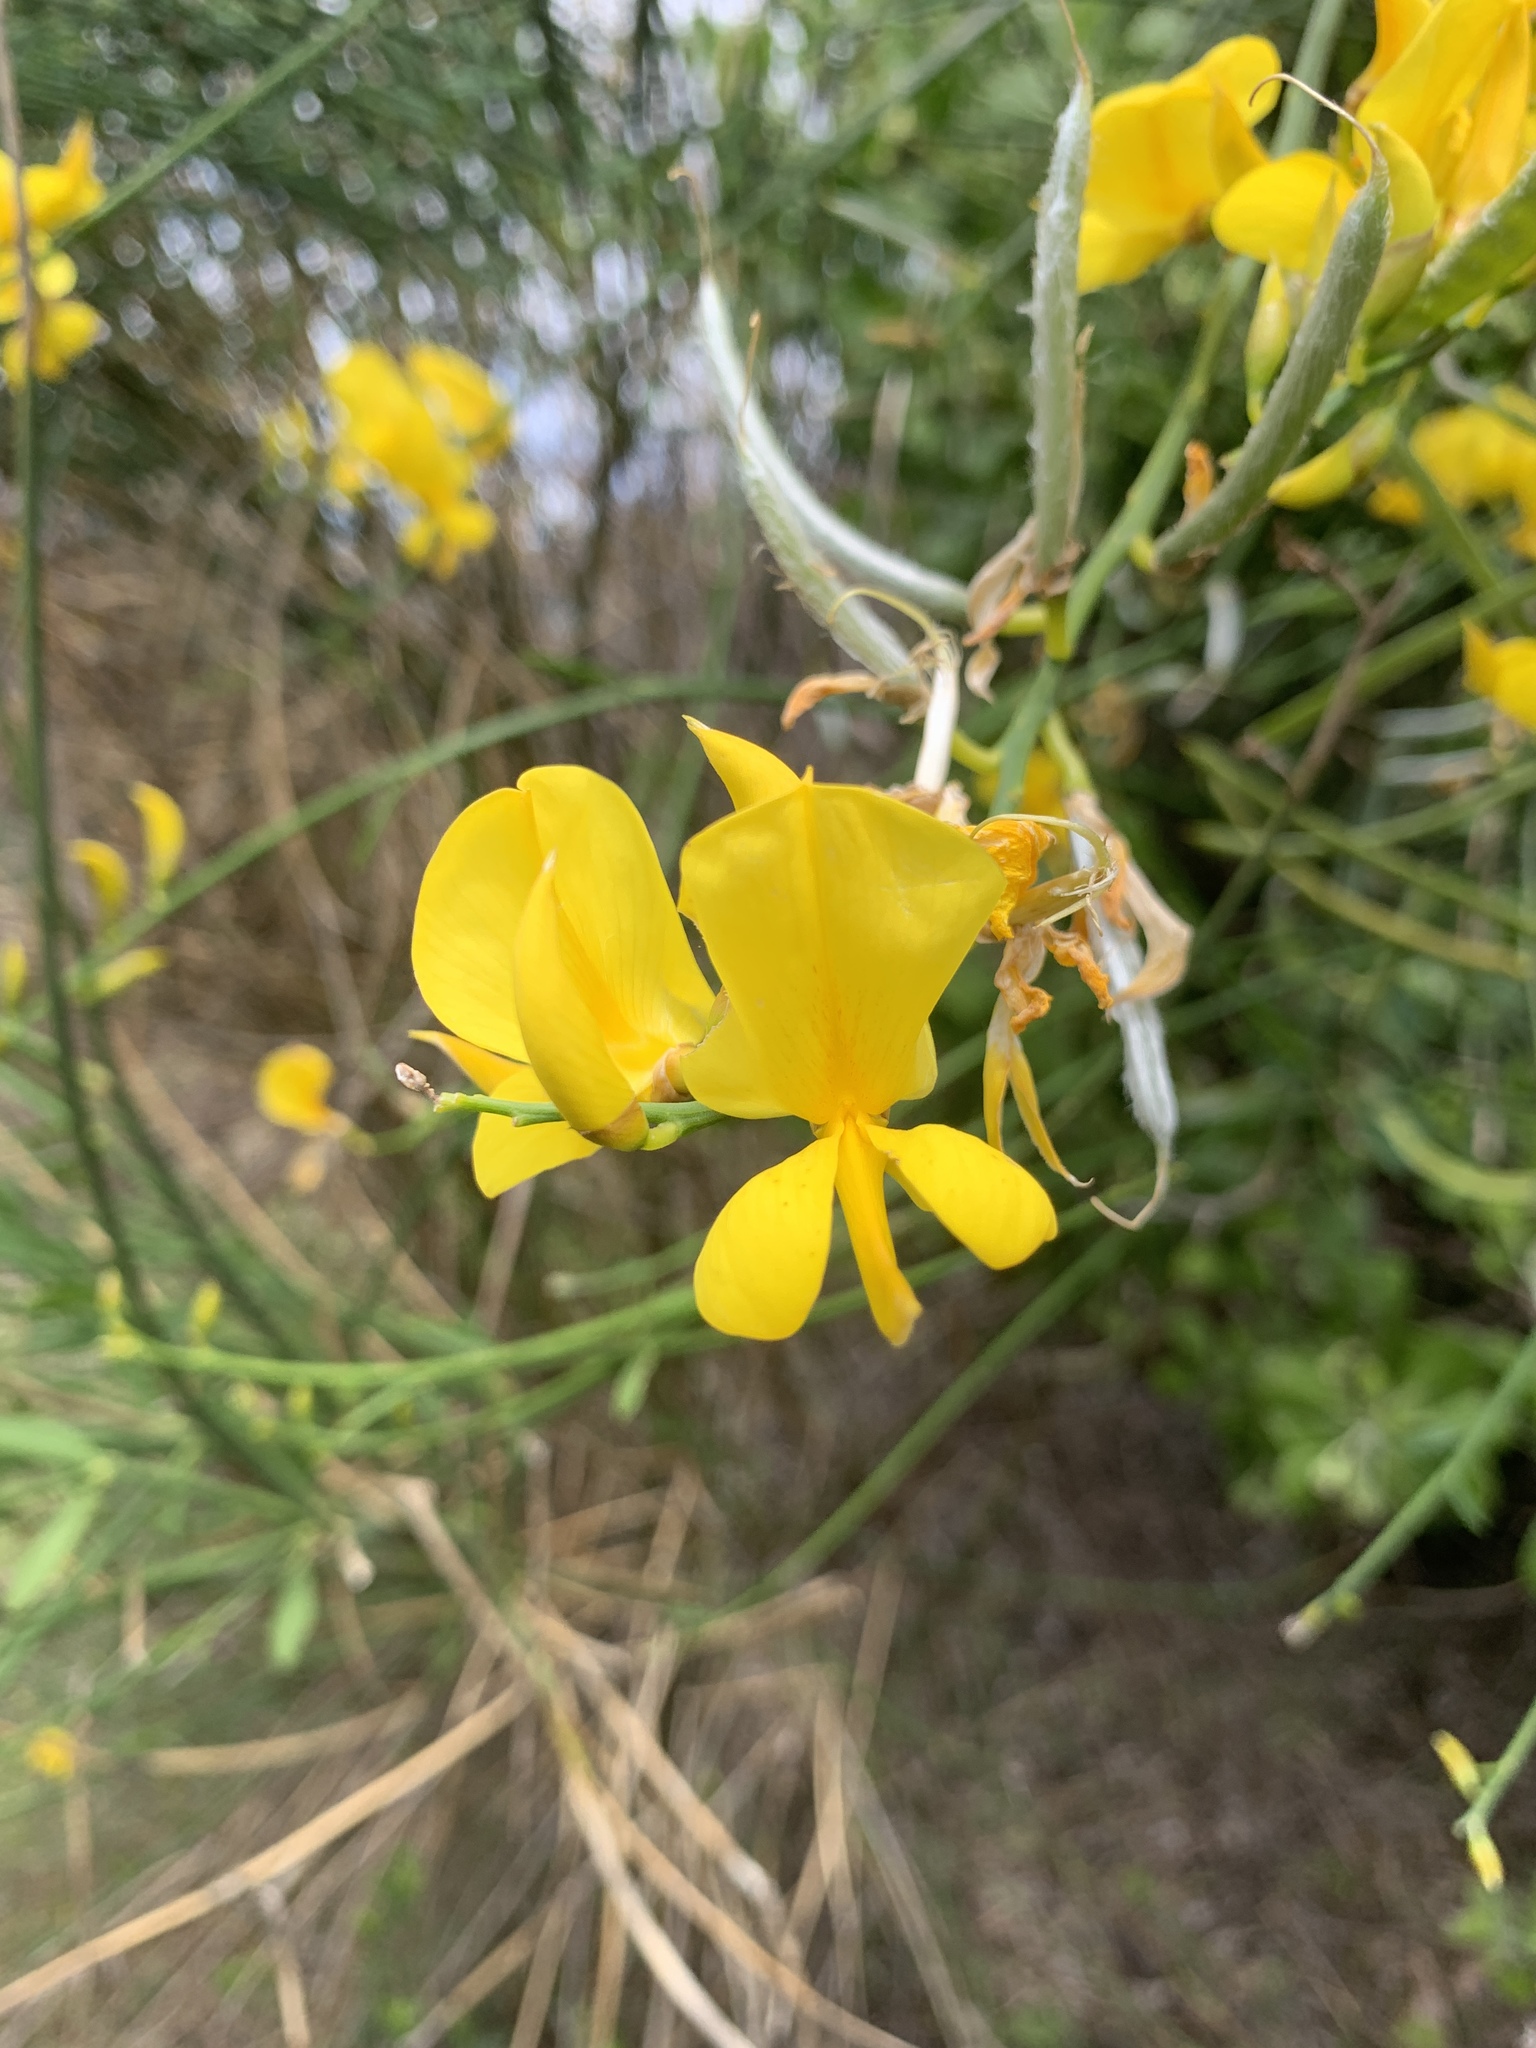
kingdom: Plantae
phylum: Tracheophyta
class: Magnoliopsida
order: Fabales
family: Fabaceae
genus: Spartium
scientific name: Spartium junceum
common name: Spanish broom
